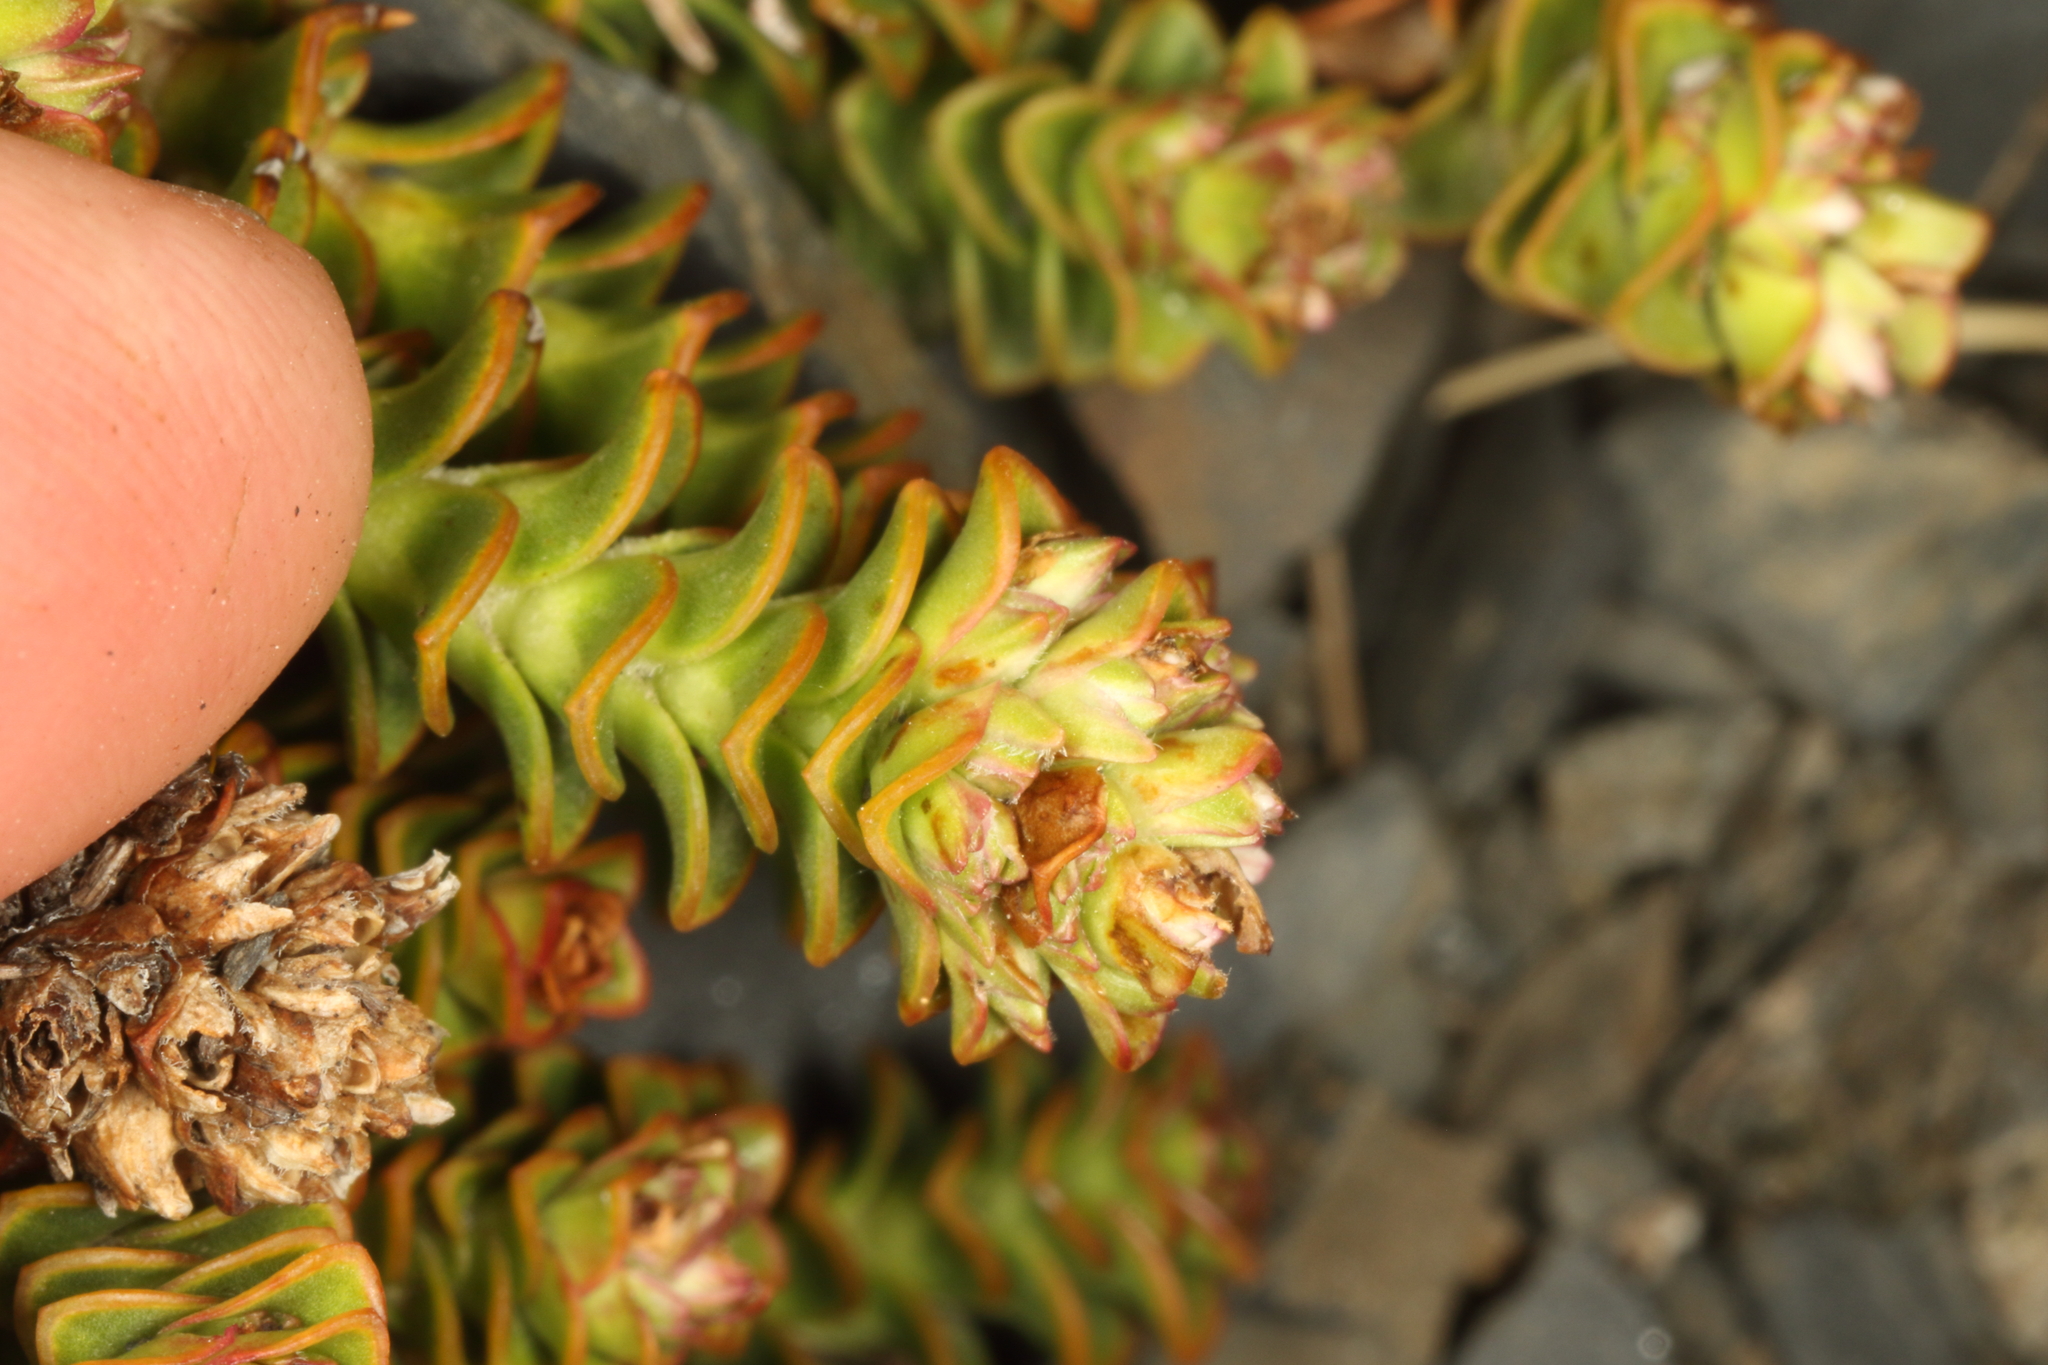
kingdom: Plantae
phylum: Tracheophyta
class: Magnoliopsida
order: Lamiales
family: Plantaginaceae
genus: Veronica
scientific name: Veronica epacridea
